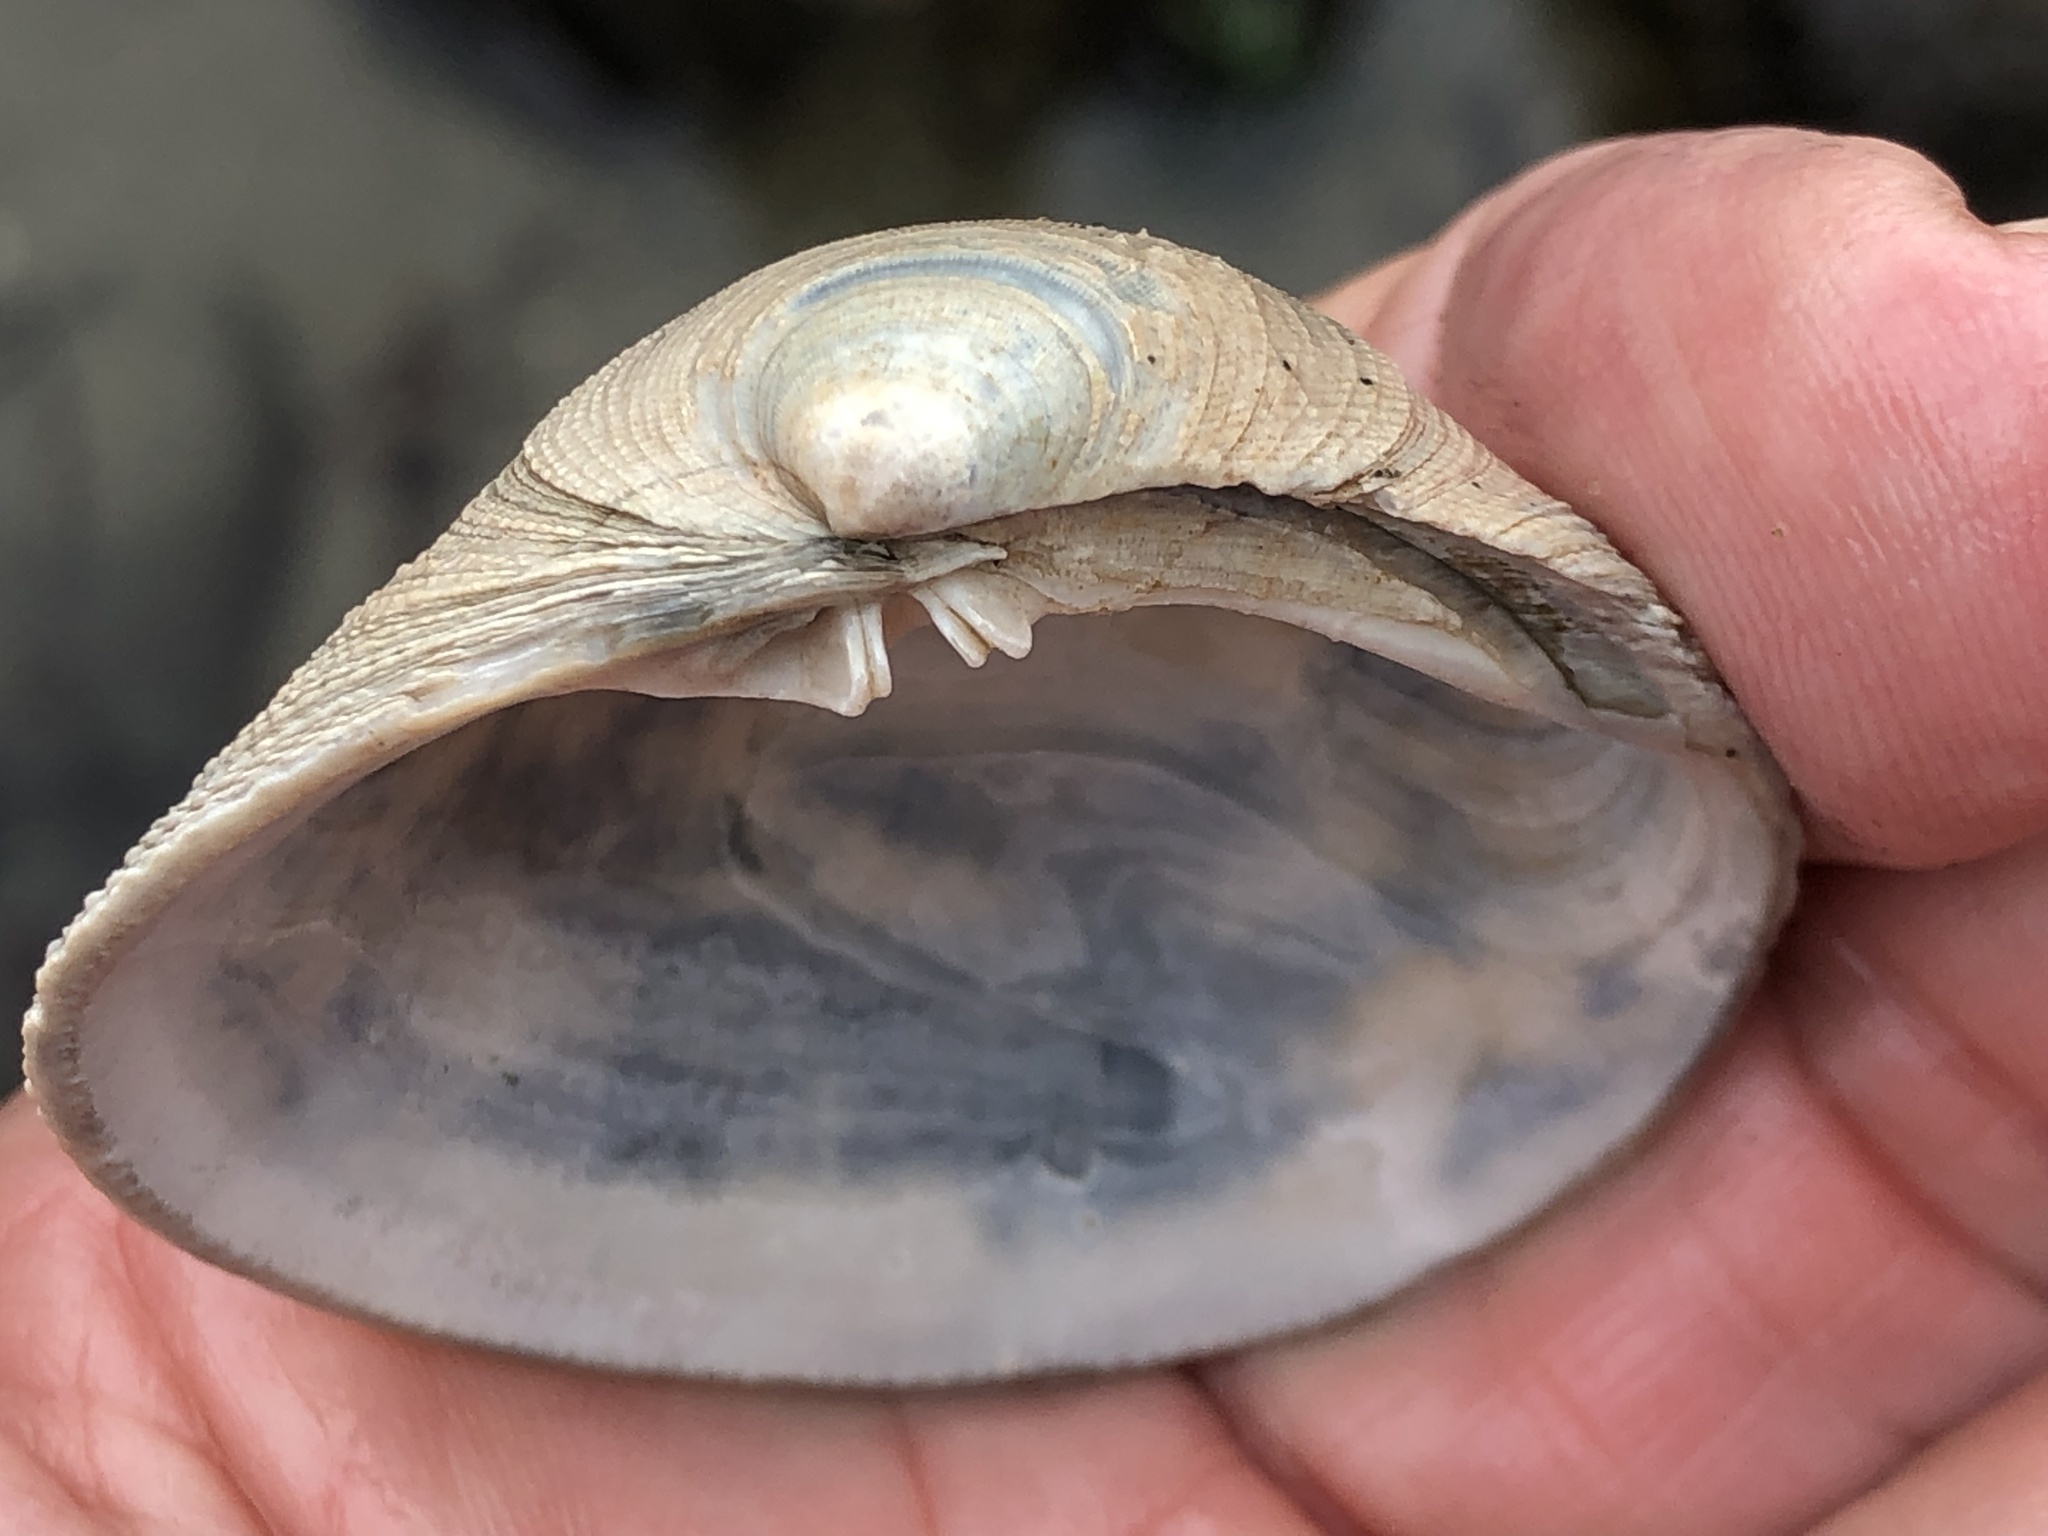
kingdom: Animalia
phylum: Mollusca
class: Bivalvia
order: Venerida
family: Veneridae
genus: Leukoma
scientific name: Leukoma staminea
